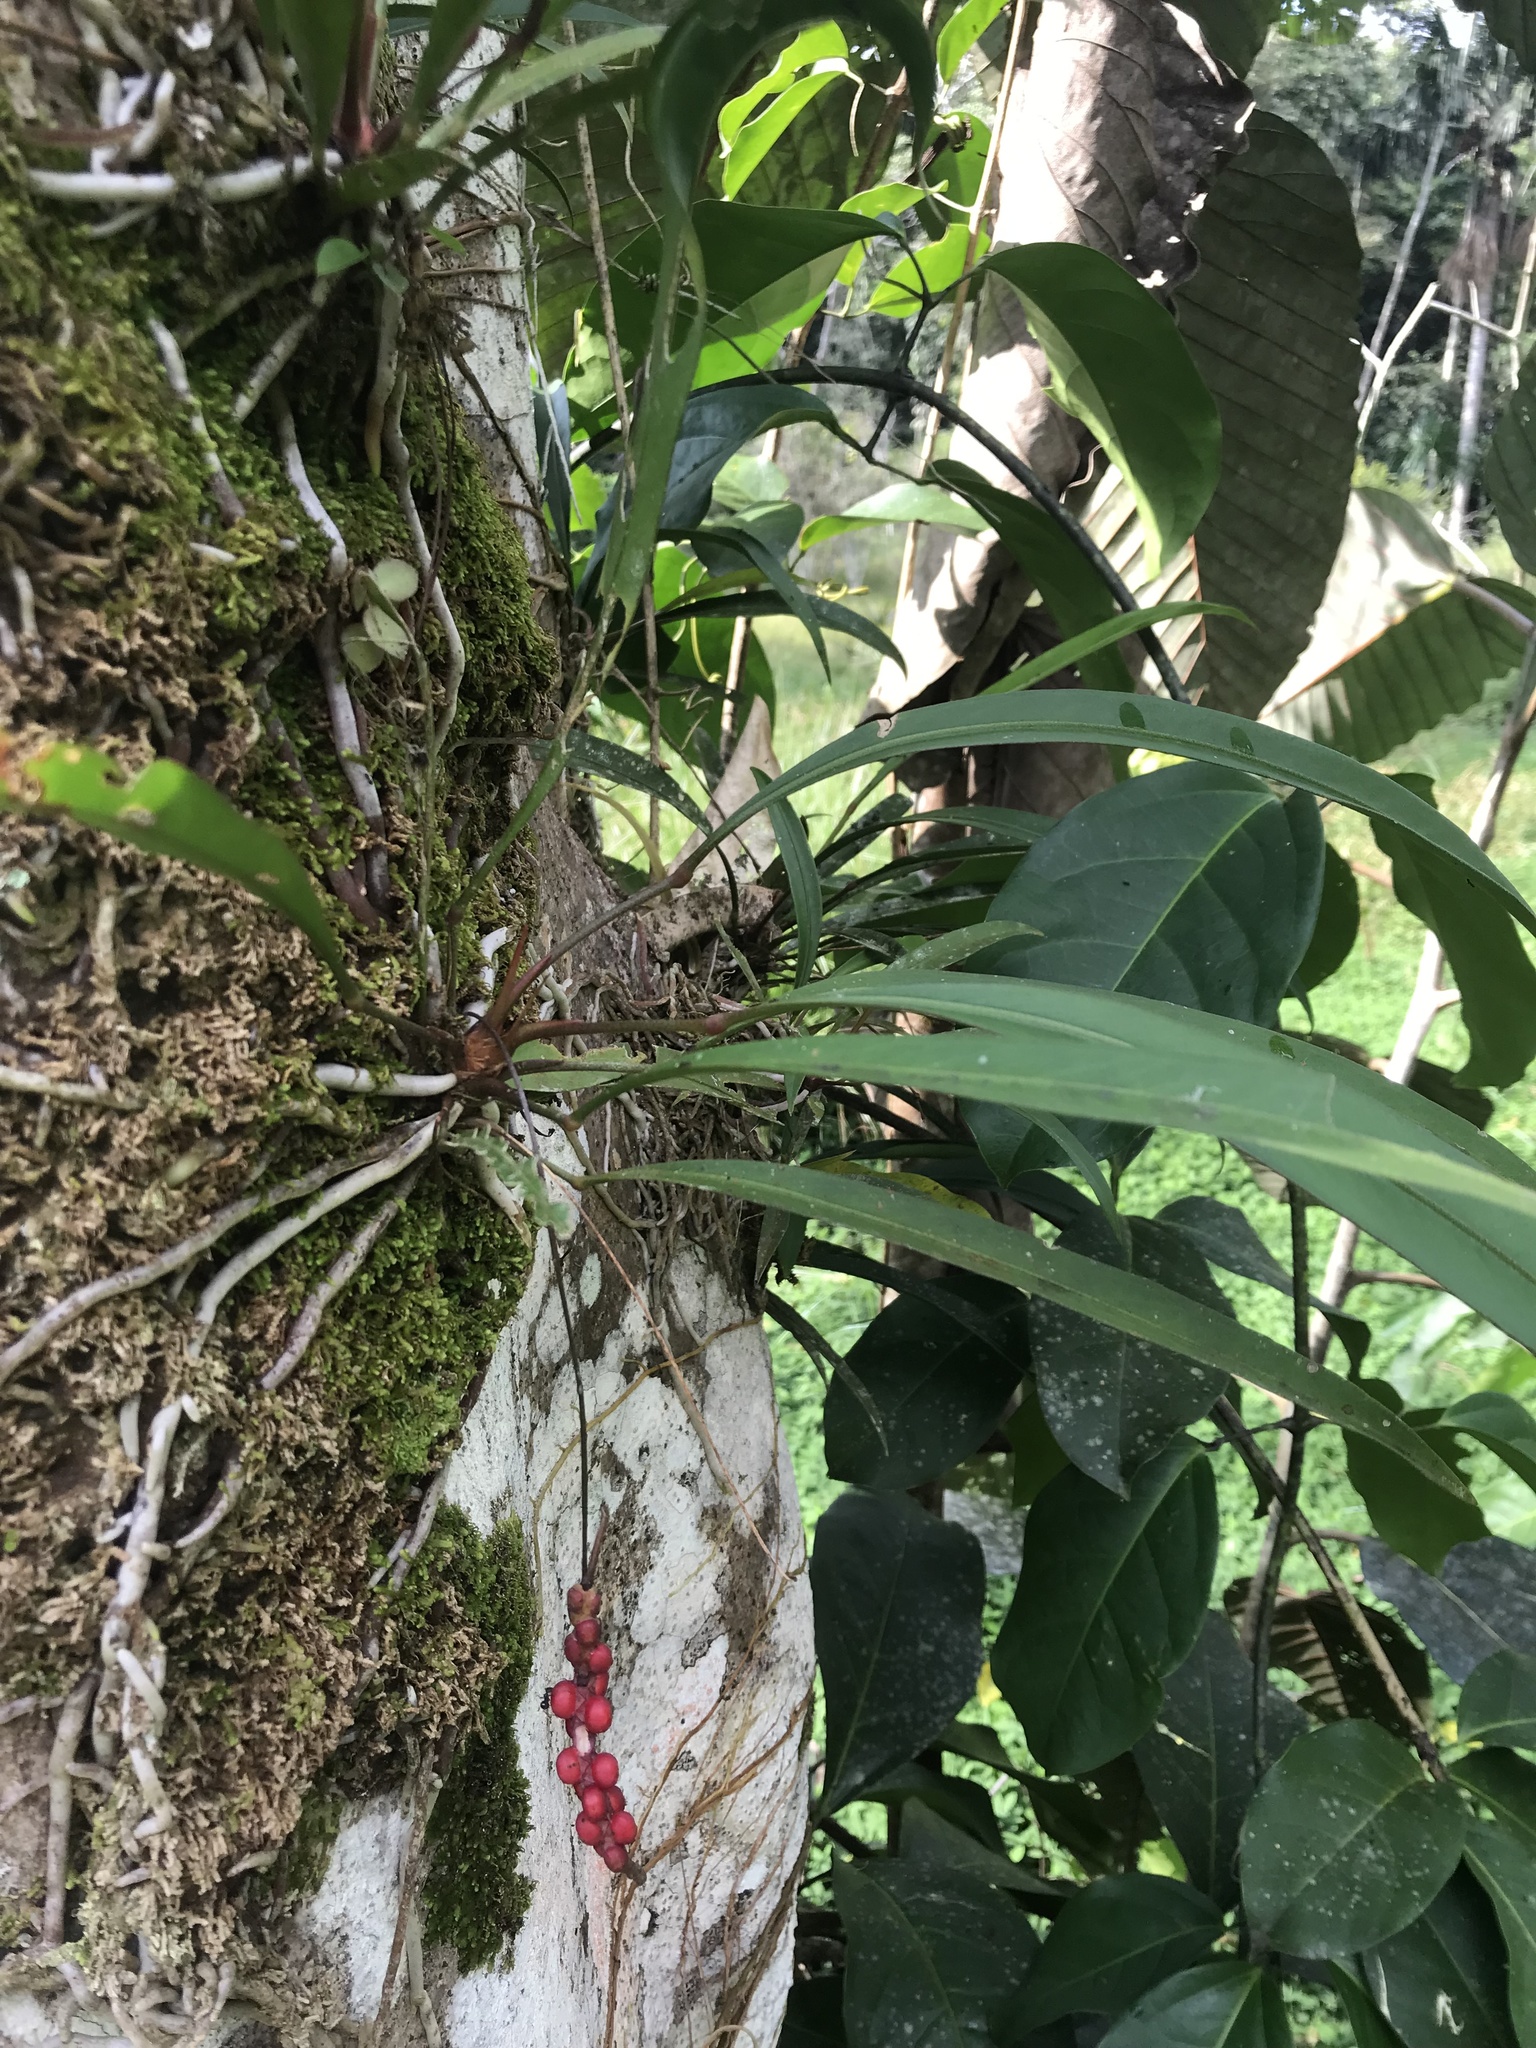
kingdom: Plantae
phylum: Tracheophyta
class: Liliopsida
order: Alismatales
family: Araceae
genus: Anthurium
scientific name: Anthurium gracile
